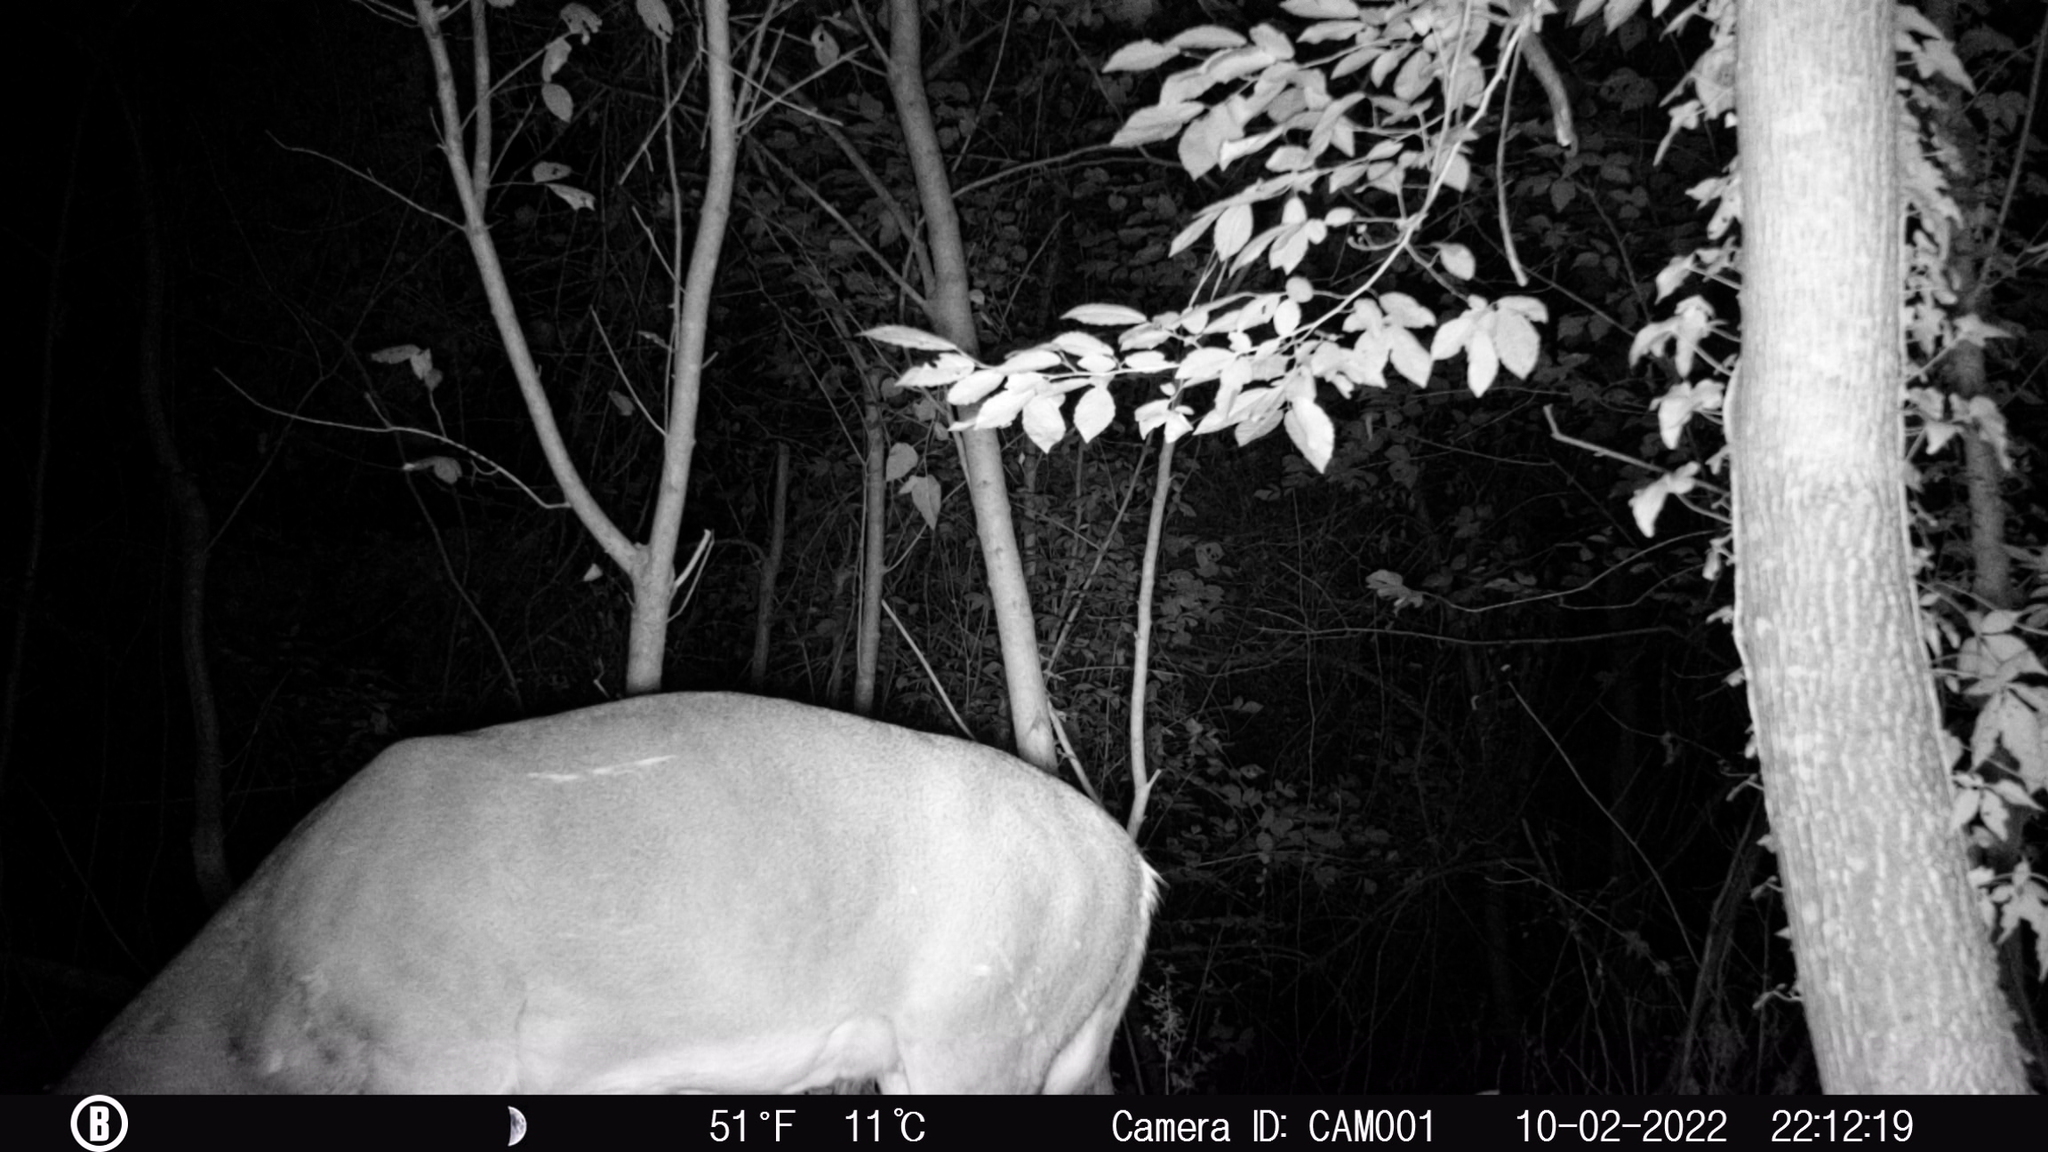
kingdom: Animalia
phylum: Chordata
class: Mammalia
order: Artiodactyla
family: Cervidae
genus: Odocoileus
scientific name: Odocoileus virginianus
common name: White-tailed deer
